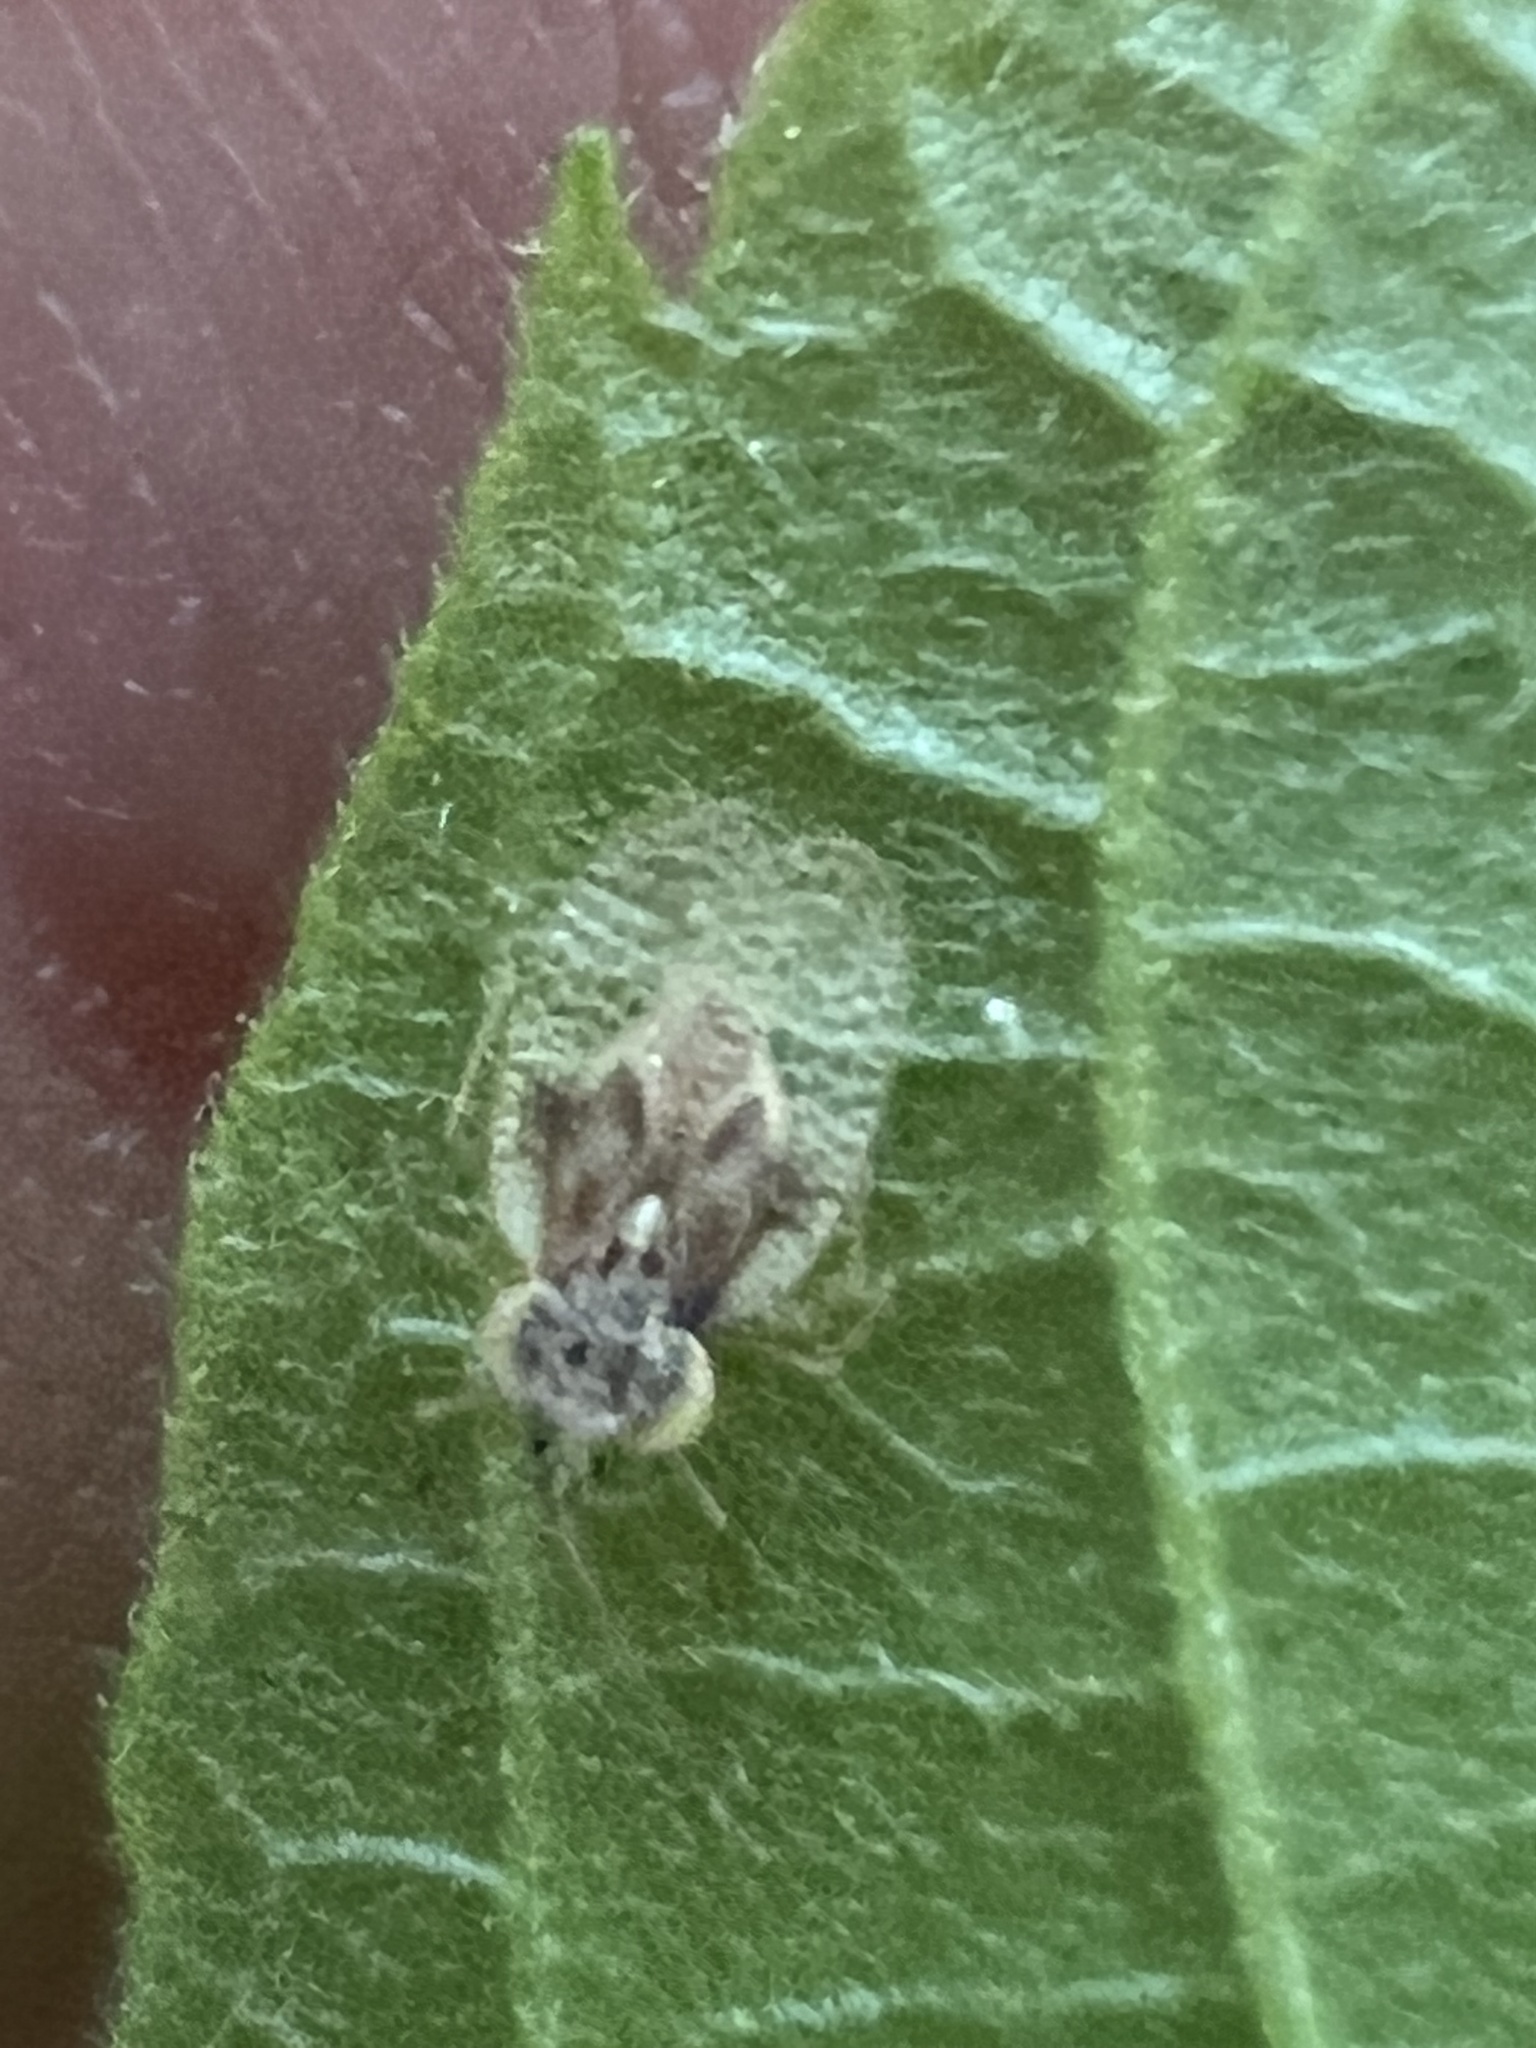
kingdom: Animalia
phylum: Arthropoda
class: Insecta
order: Hemiptera
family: Tingidae
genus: Gargaphia
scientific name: Gargaphia tiliae
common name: Basswood lace bug
